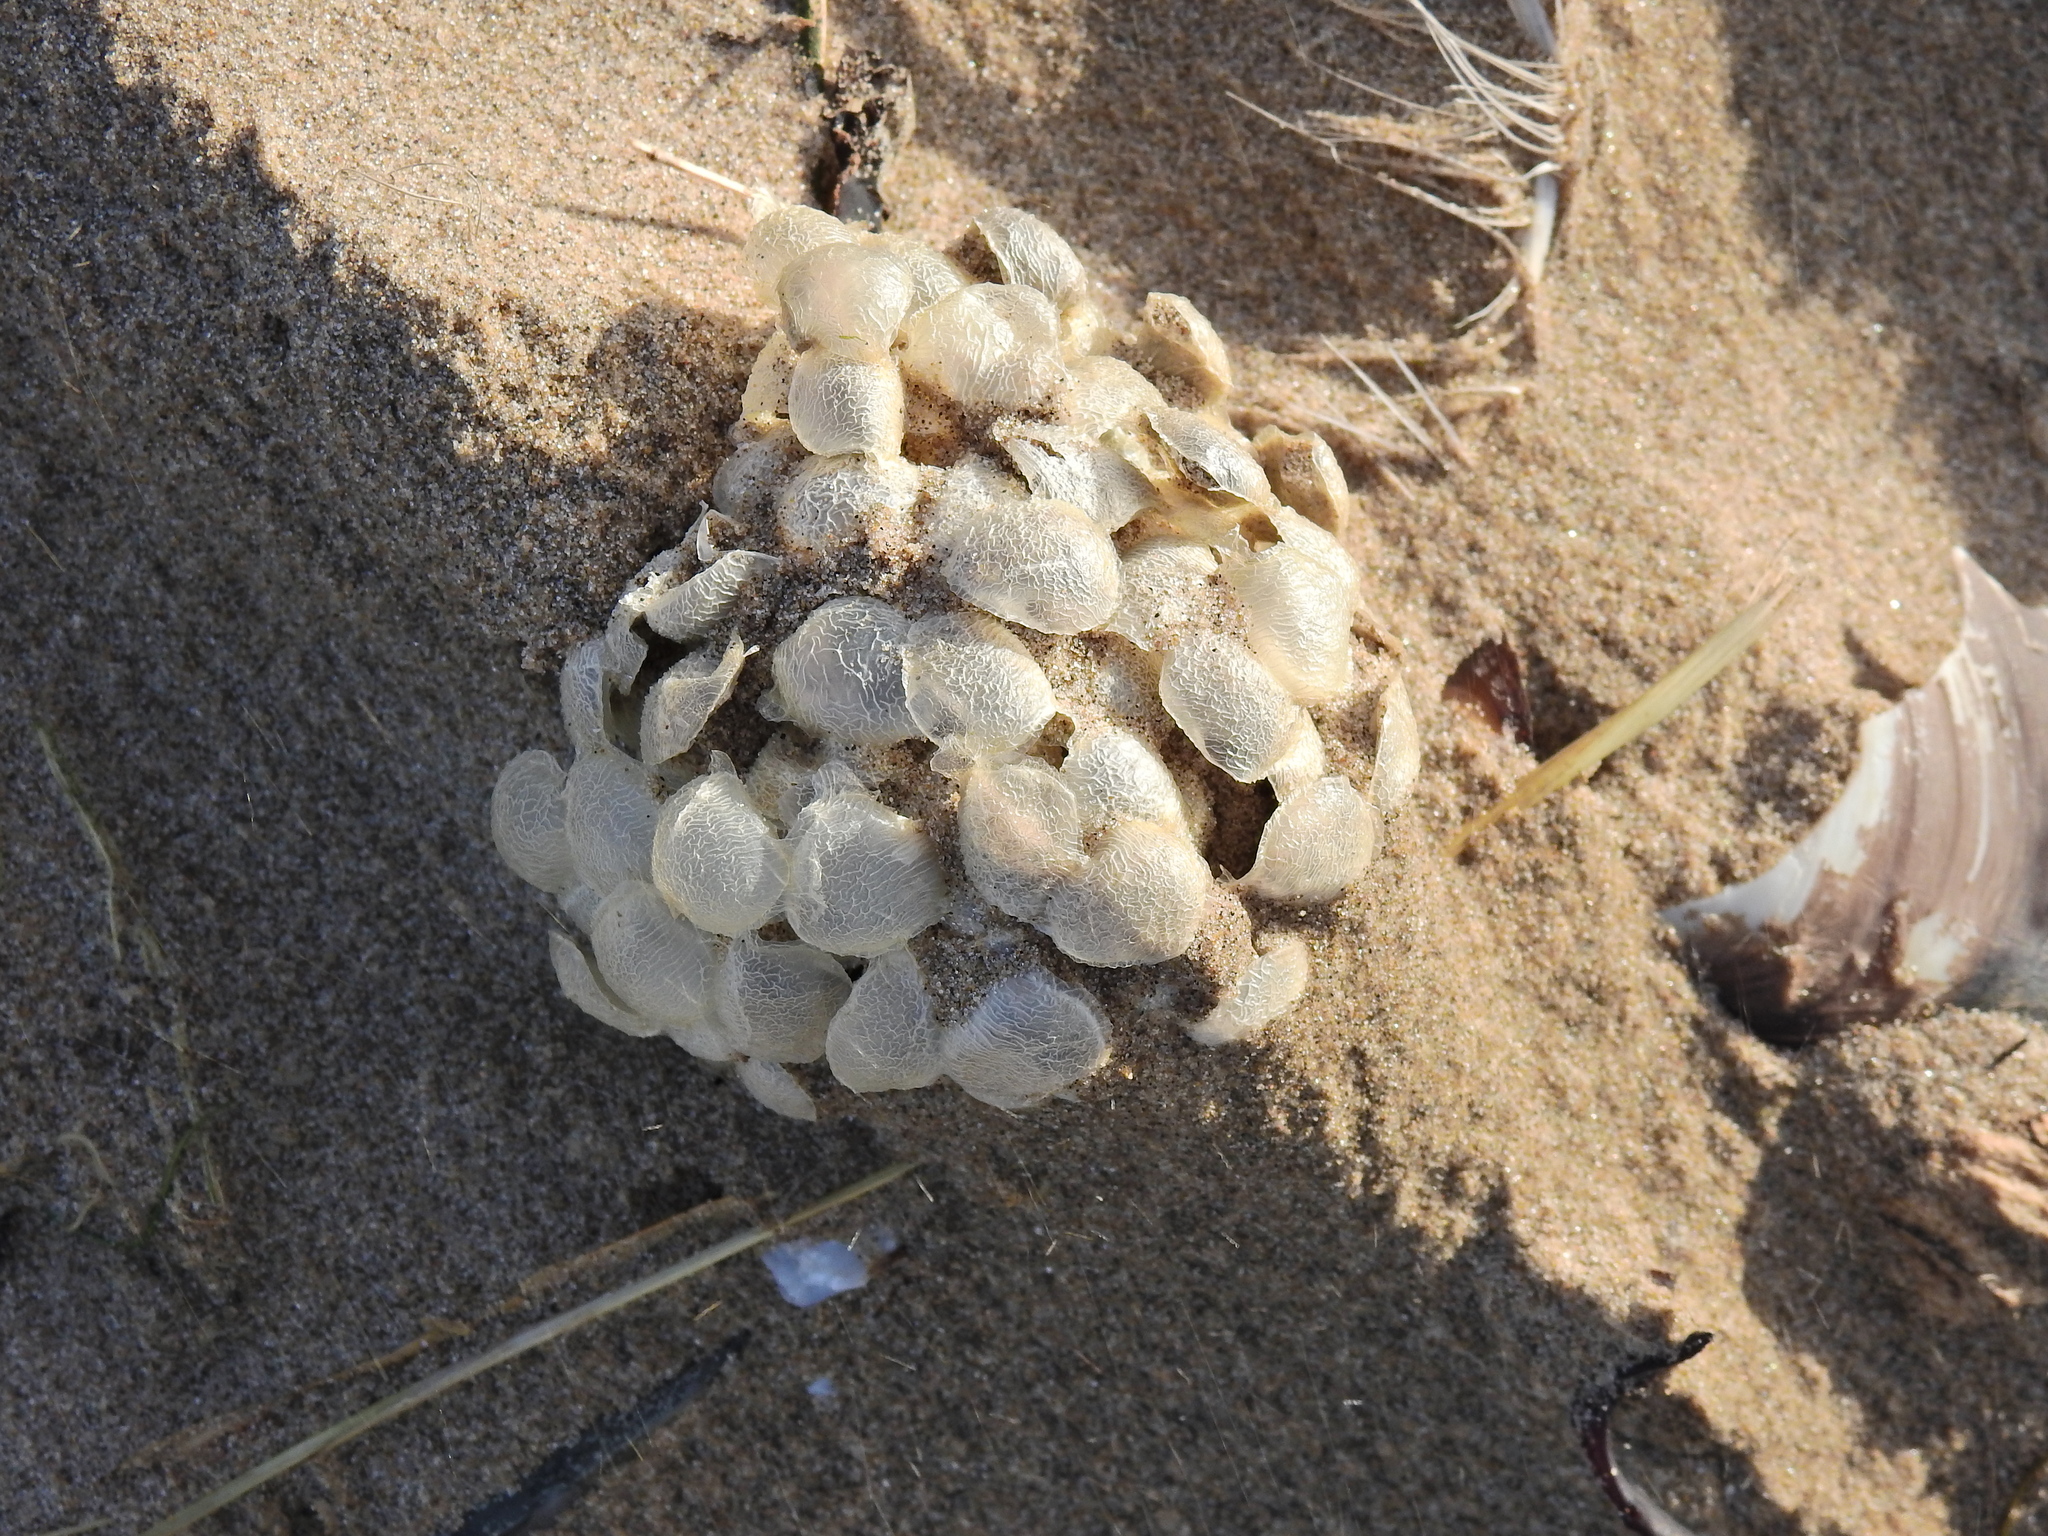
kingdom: Animalia
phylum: Mollusca
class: Gastropoda
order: Neogastropoda
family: Buccinidae
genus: Buccinum
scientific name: Buccinum undatum
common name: Common whelk
